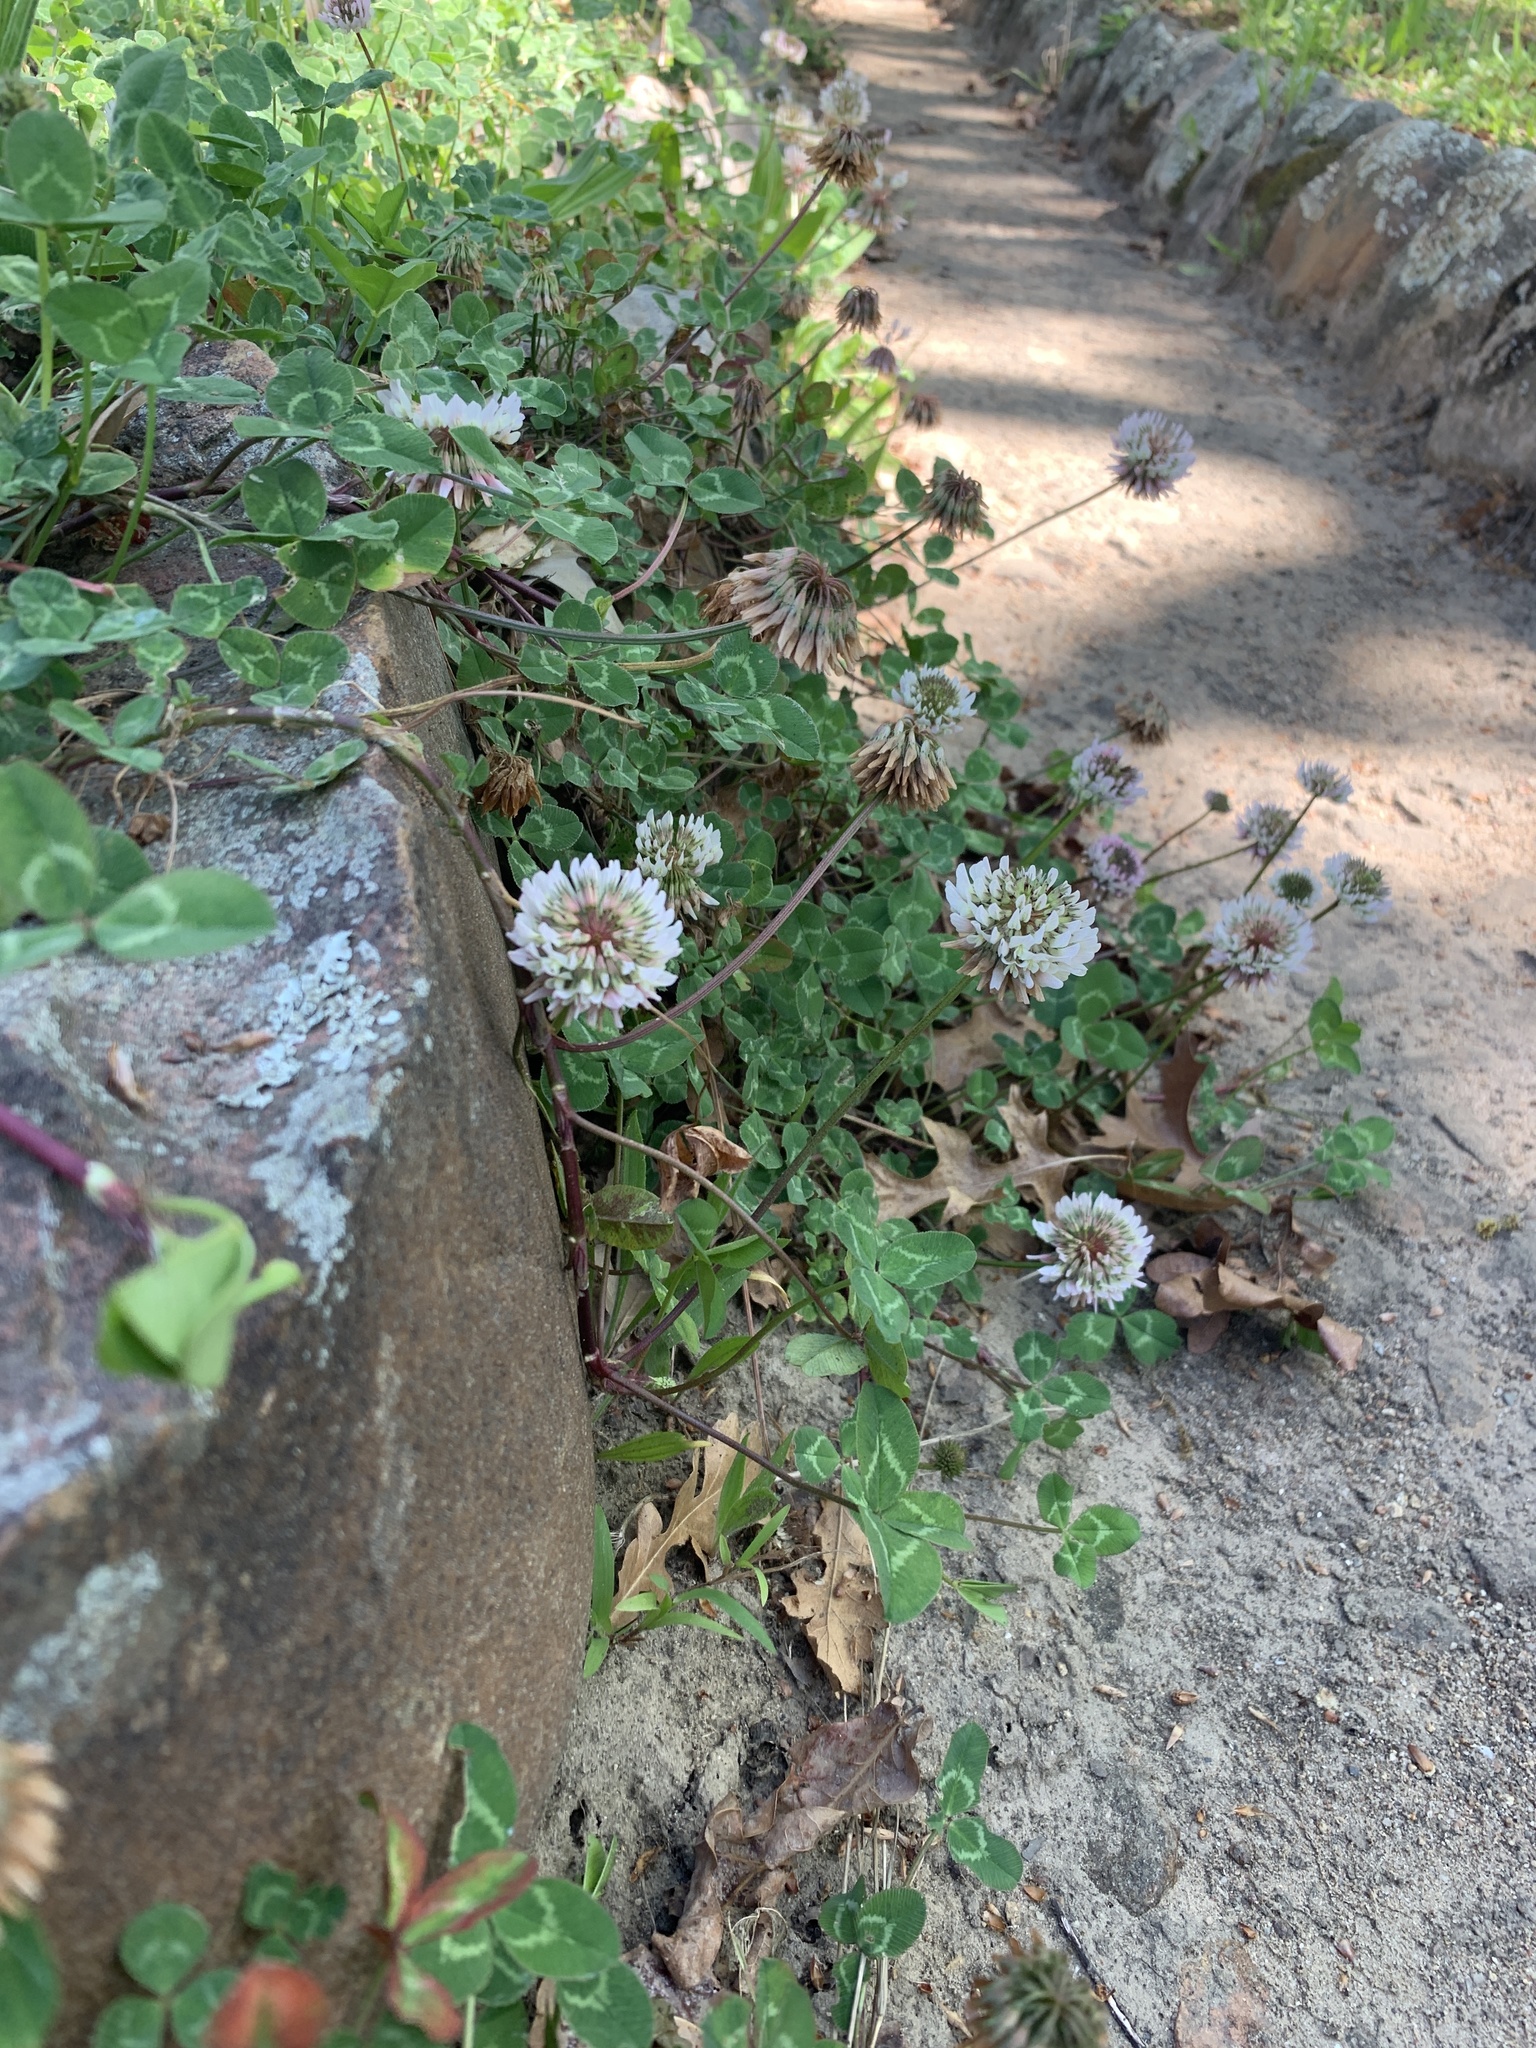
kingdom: Plantae
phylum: Tracheophyta
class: Magnoliopsida
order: Fabales
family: Fabaceae
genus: Trifolium
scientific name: Trifolium repens
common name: White clover
